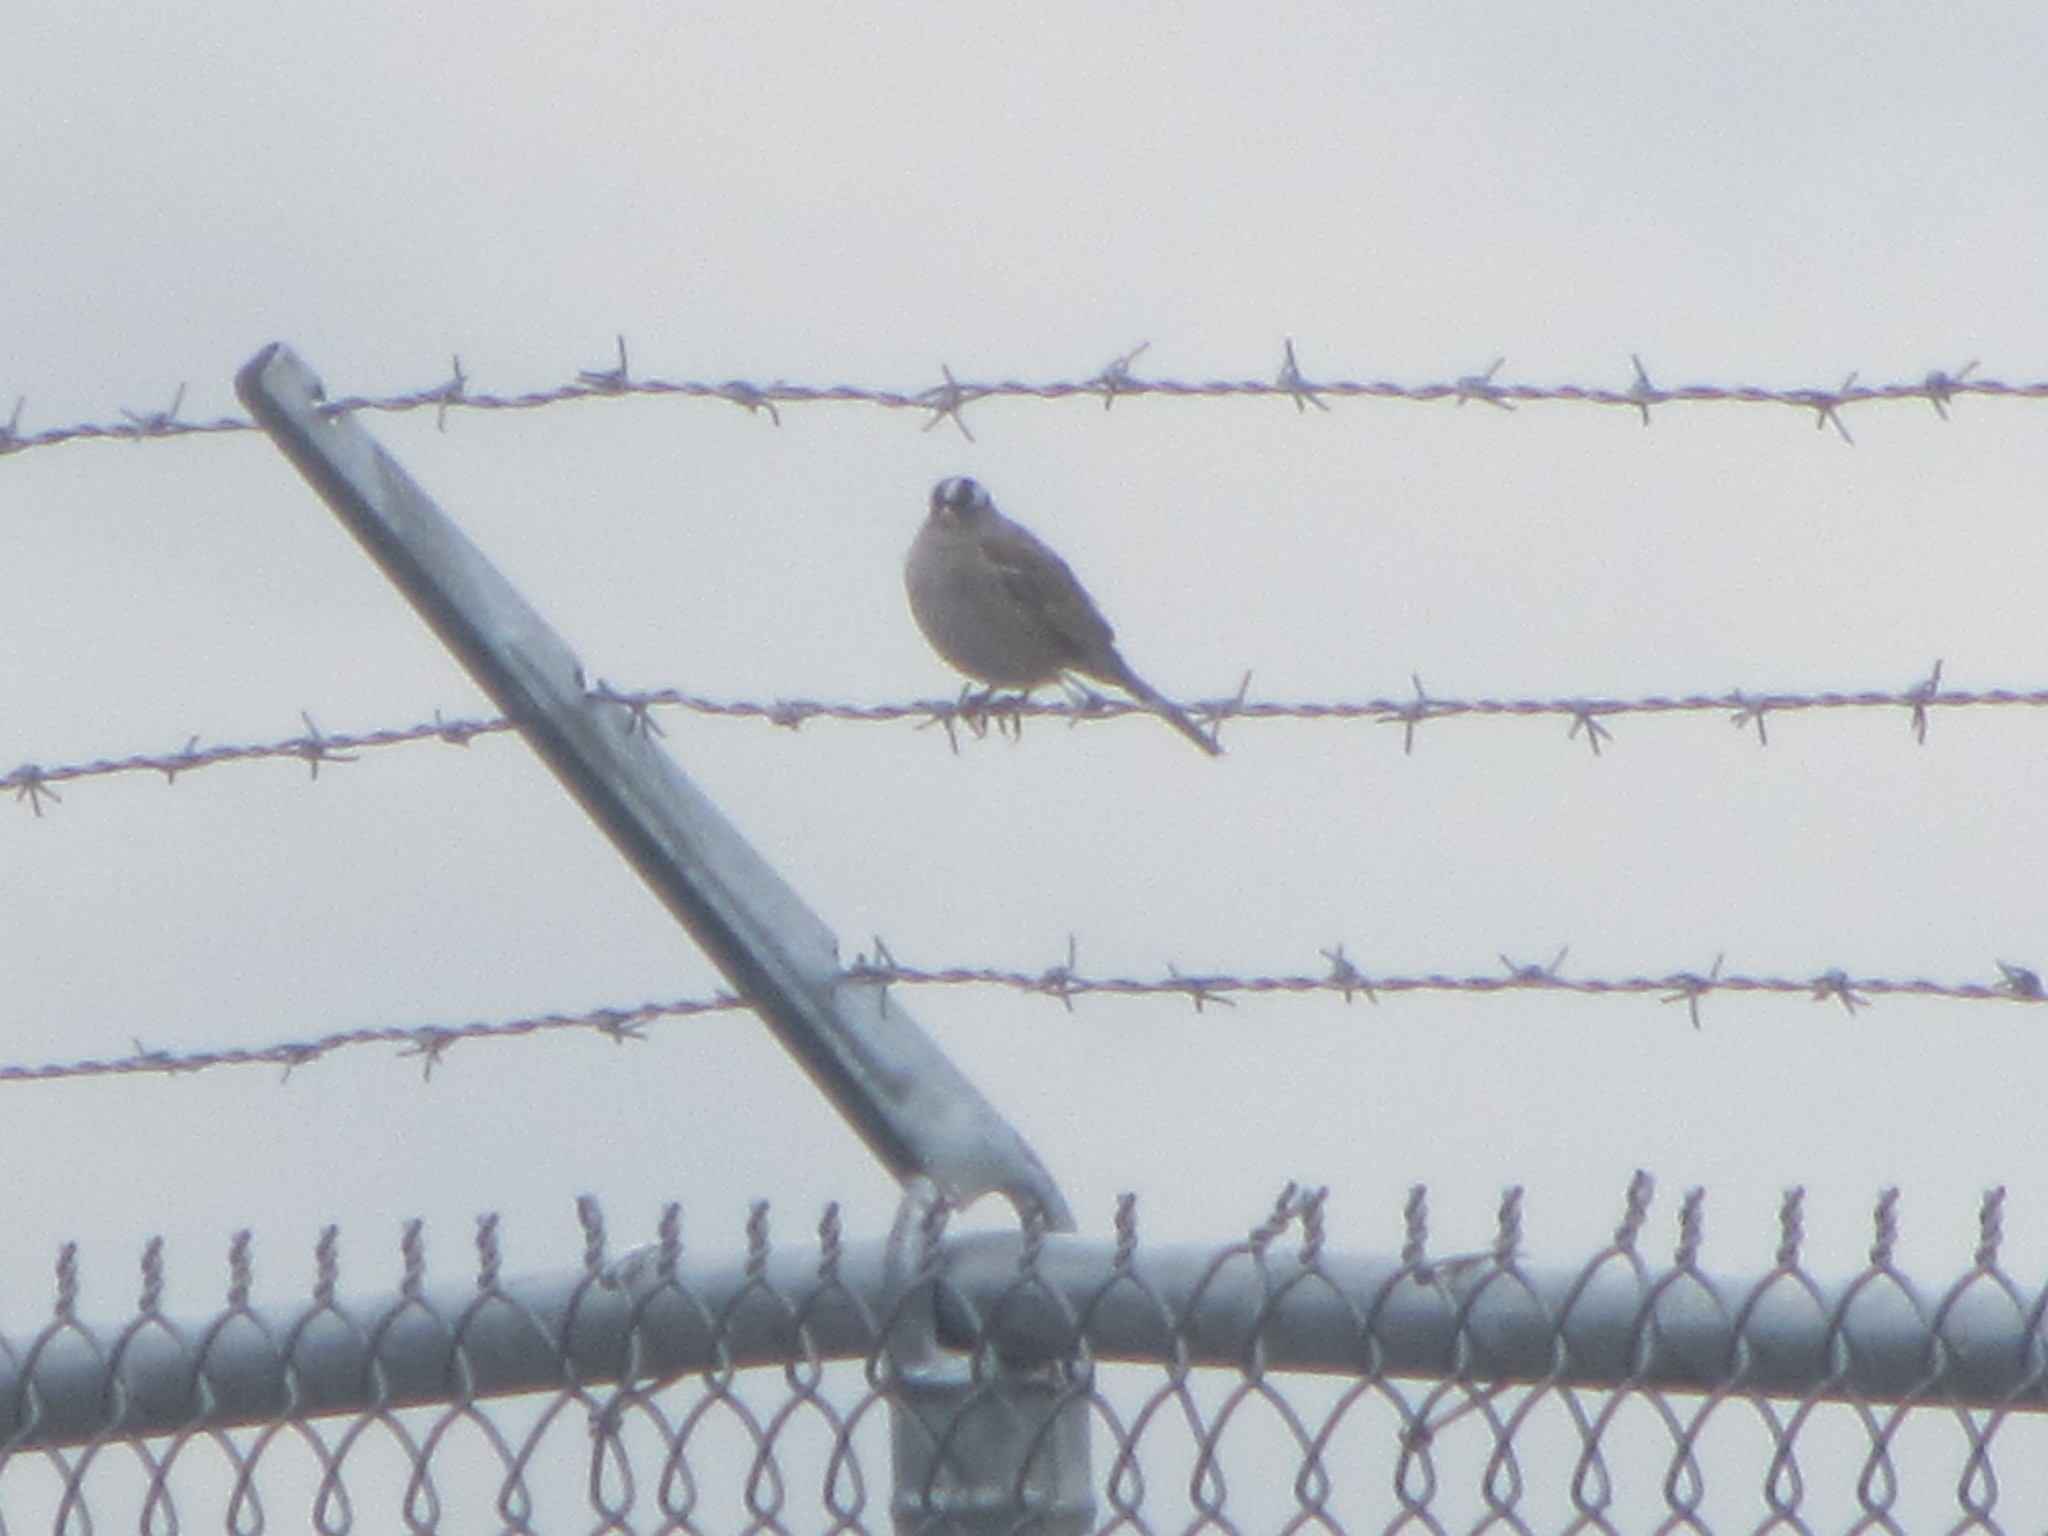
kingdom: Animalia
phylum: Chordata
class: Aves
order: Passeriformes
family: Passerellidae
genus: Zonotrichia
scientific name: Zonotrichia leucophrys
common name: White-crowned sparrow
